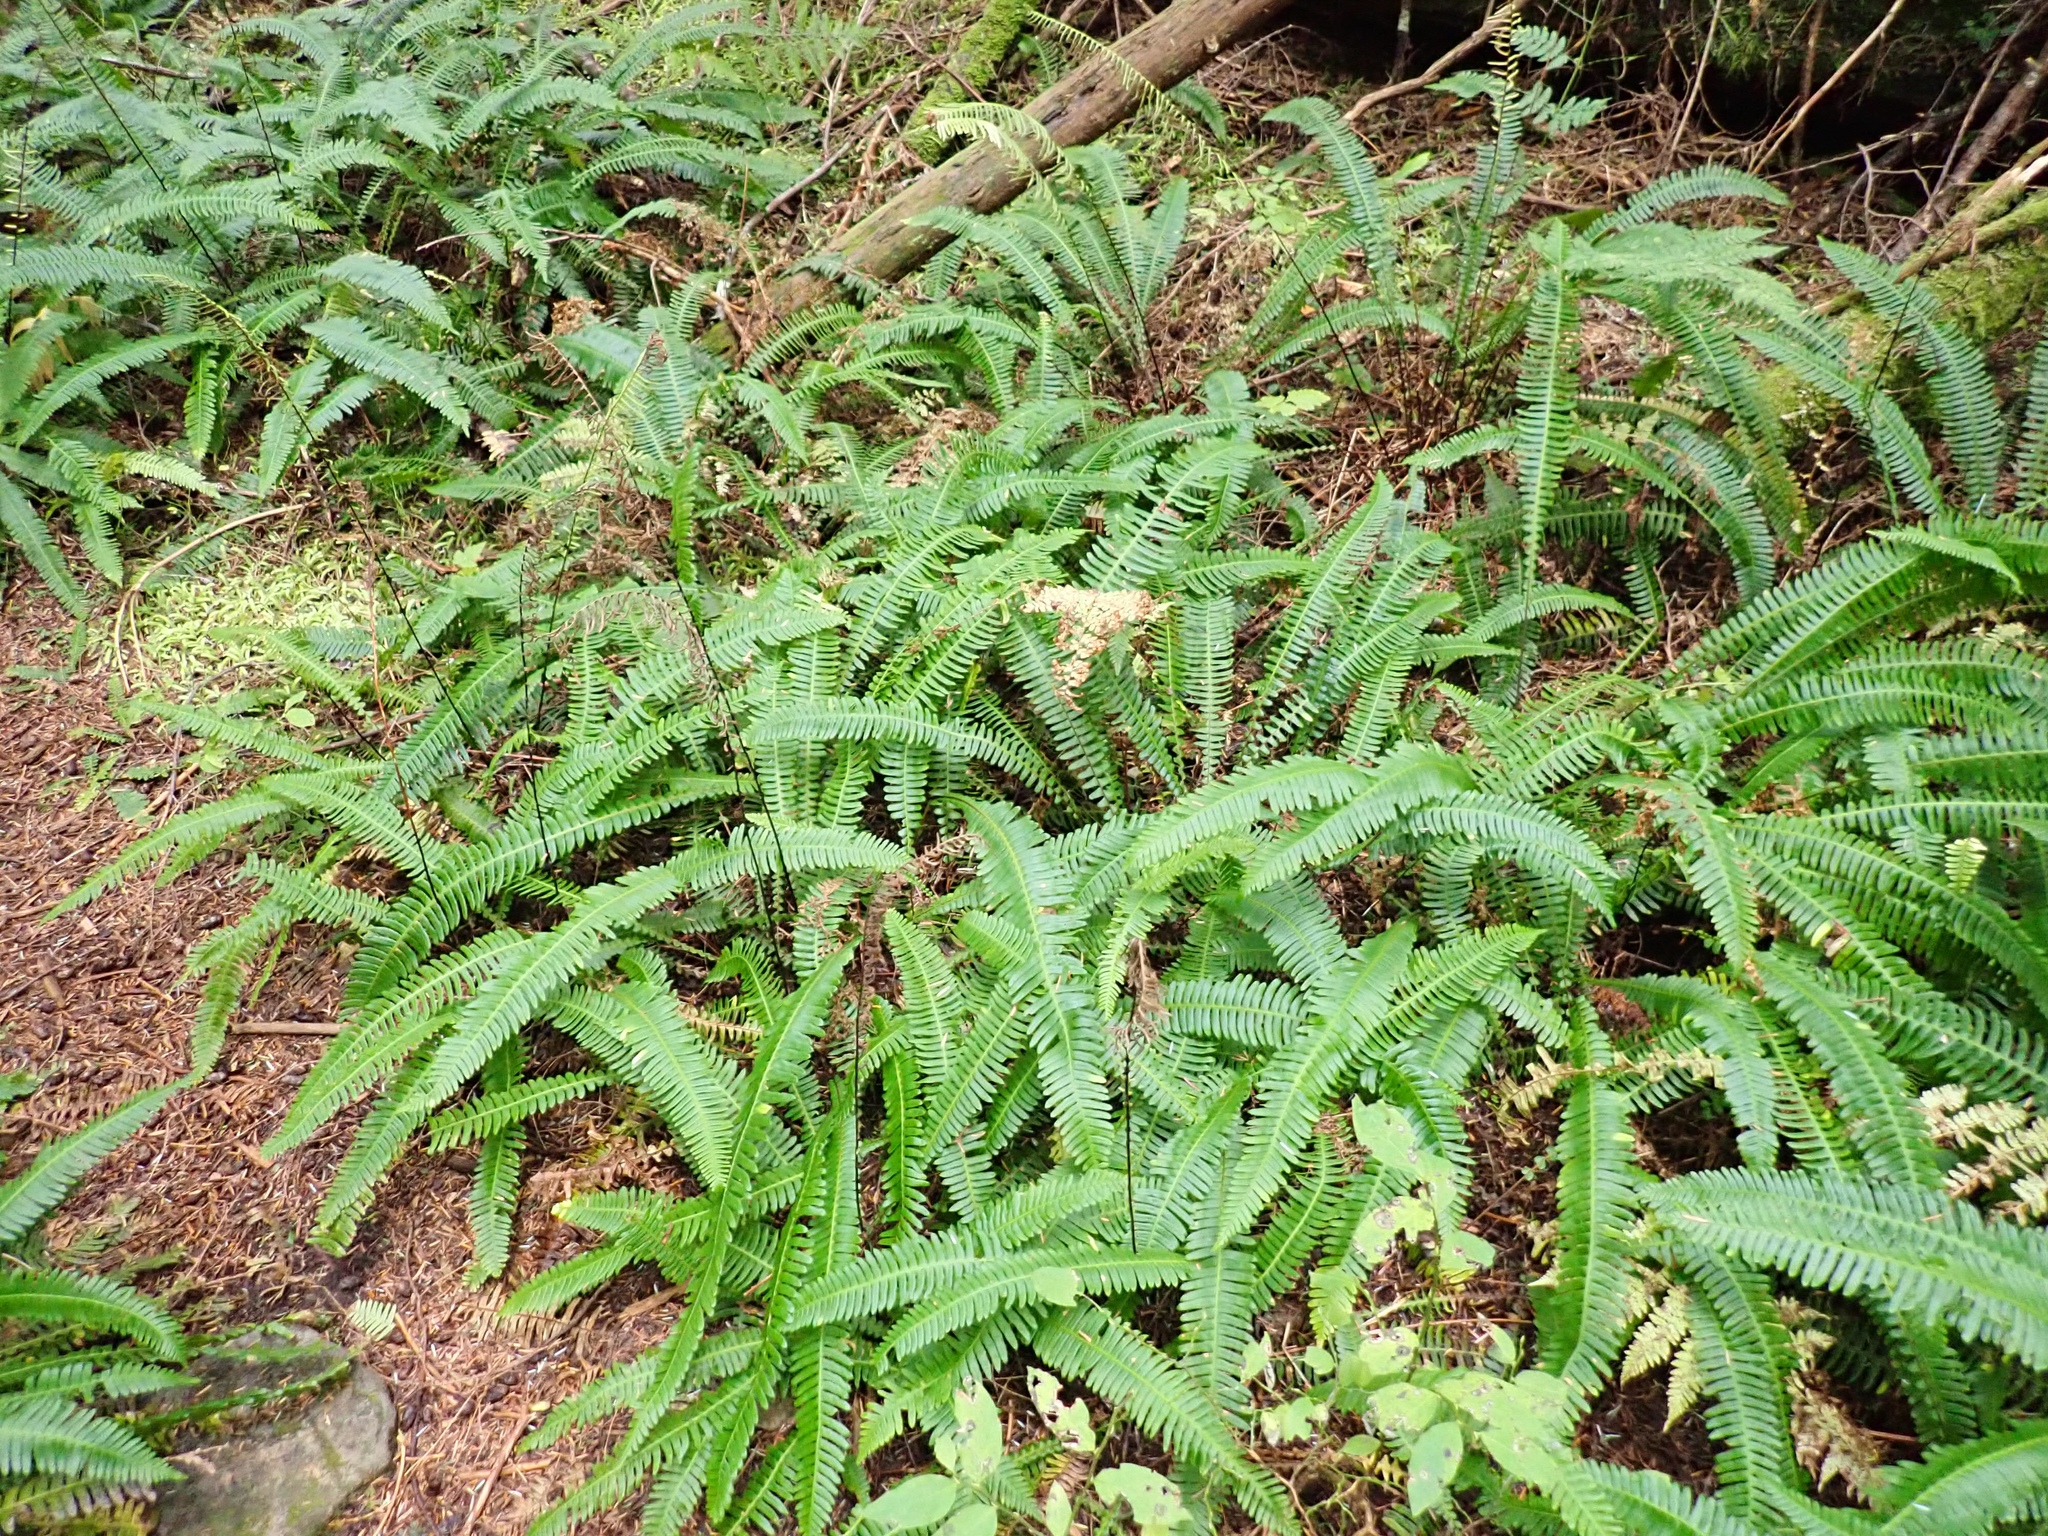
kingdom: Plantae
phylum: Tracheophyta
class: Polypodiopsida
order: Polypodiales
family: Blechnaceae
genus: Struthiopteris
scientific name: Struthiopteris spicant
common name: Deer fern
